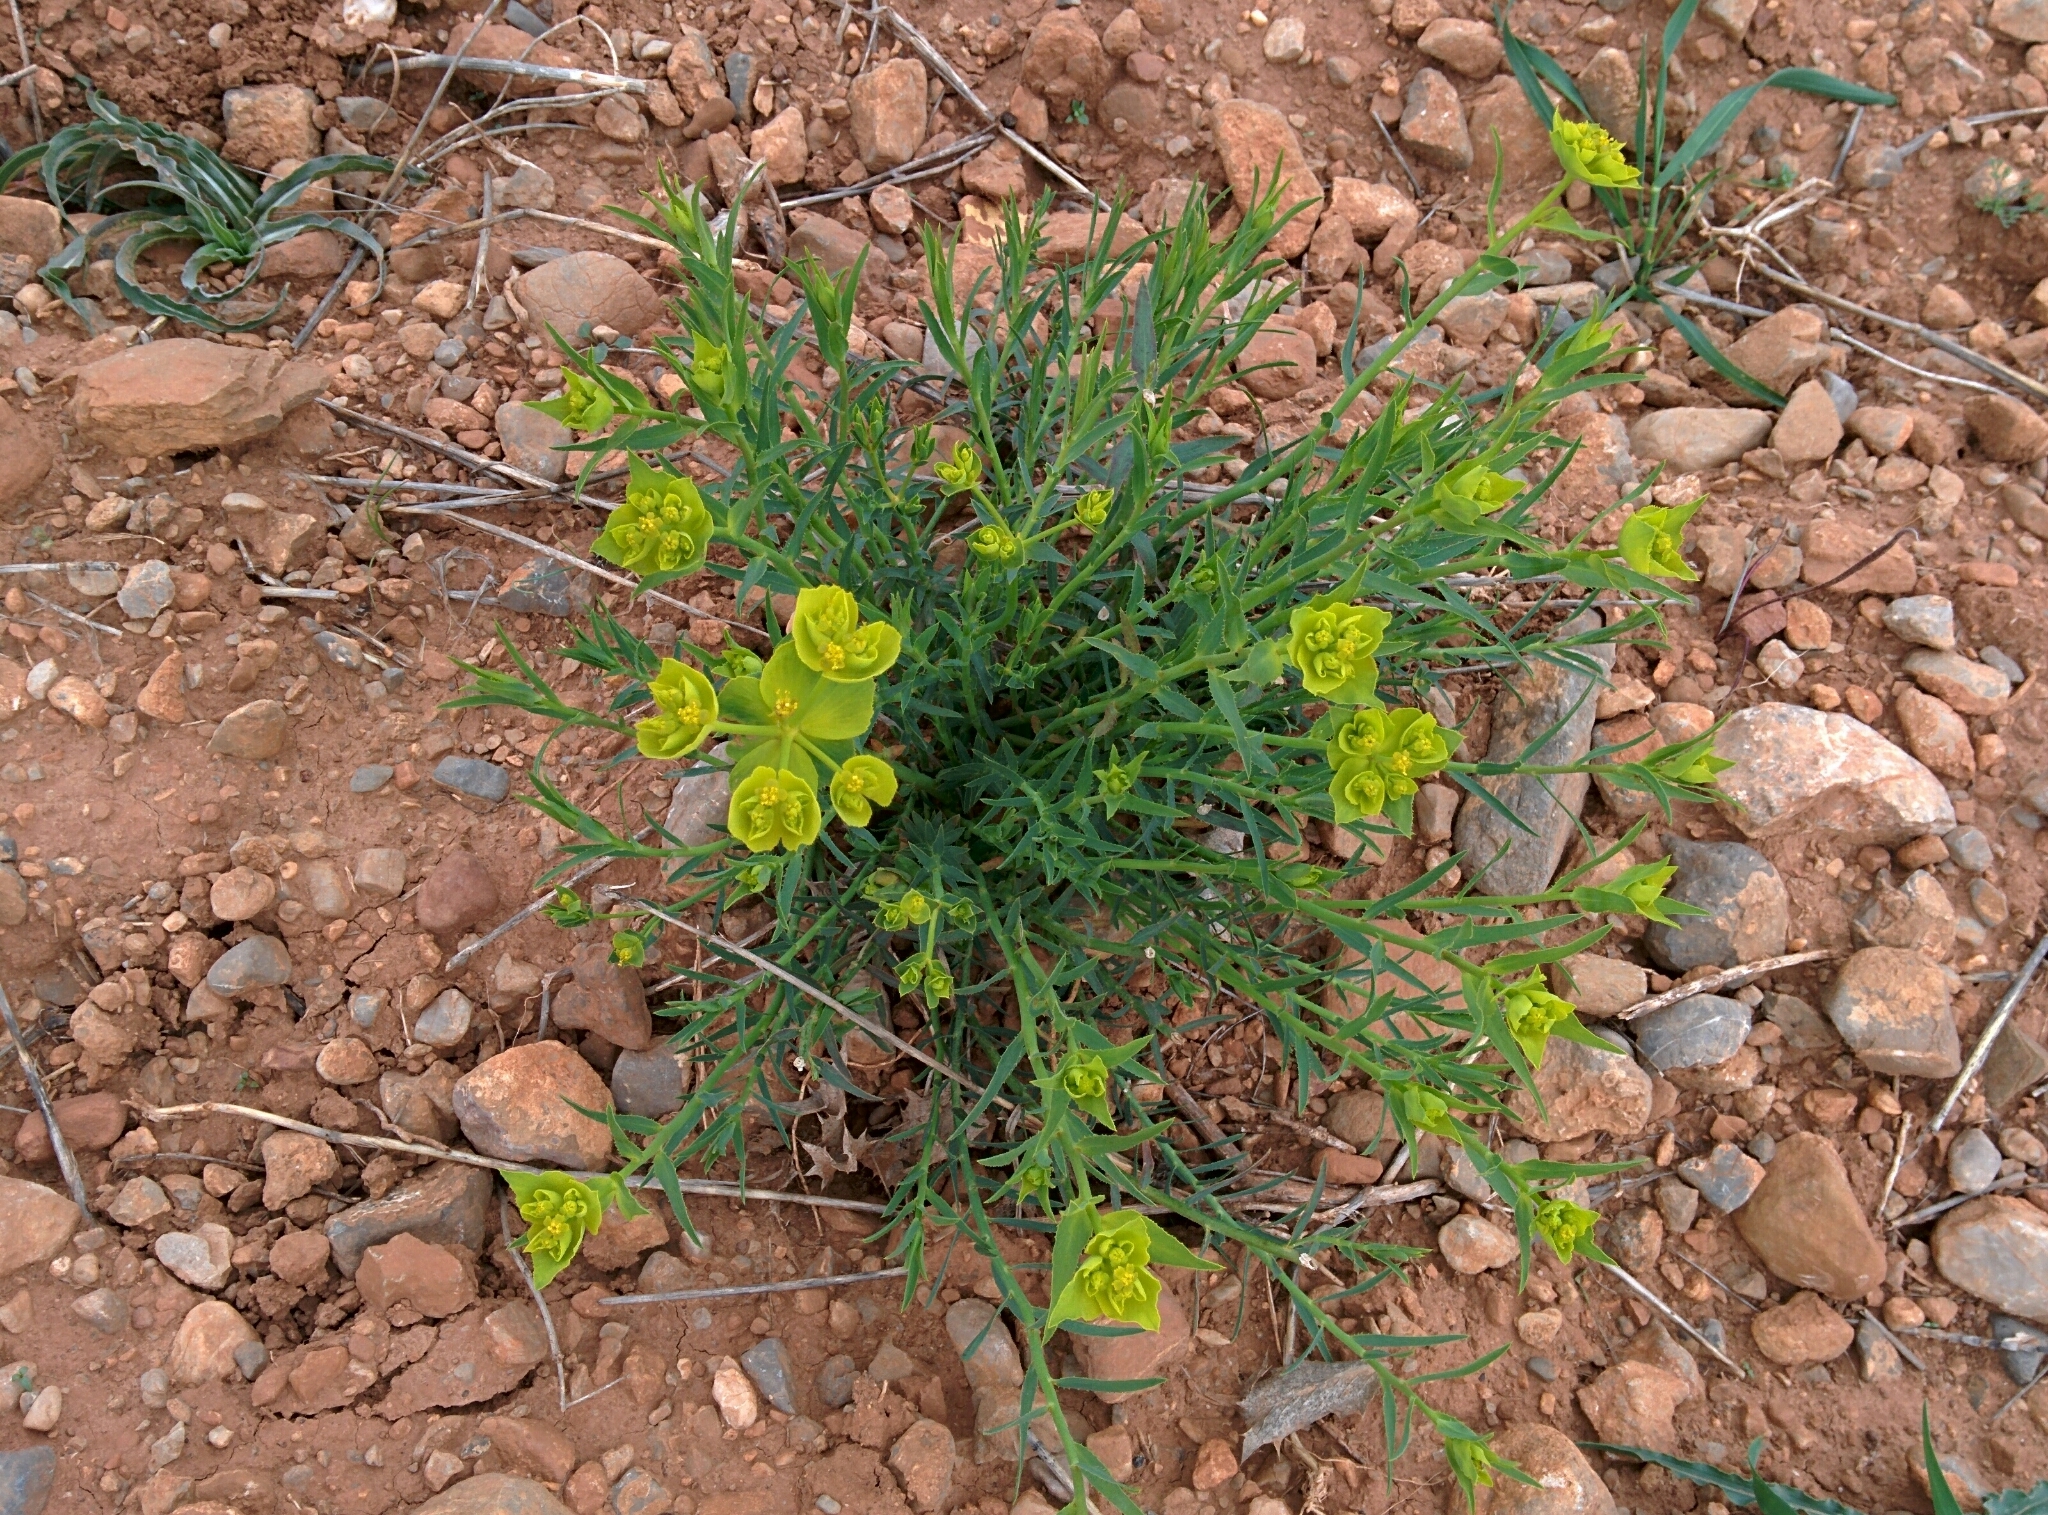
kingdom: Plantae
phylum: Tracheophyta
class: Magnoliopsida
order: Malpighiales
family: Euphorbiaceae
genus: Euphorbia
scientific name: Euphorbia serrata
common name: Serrate spurge
